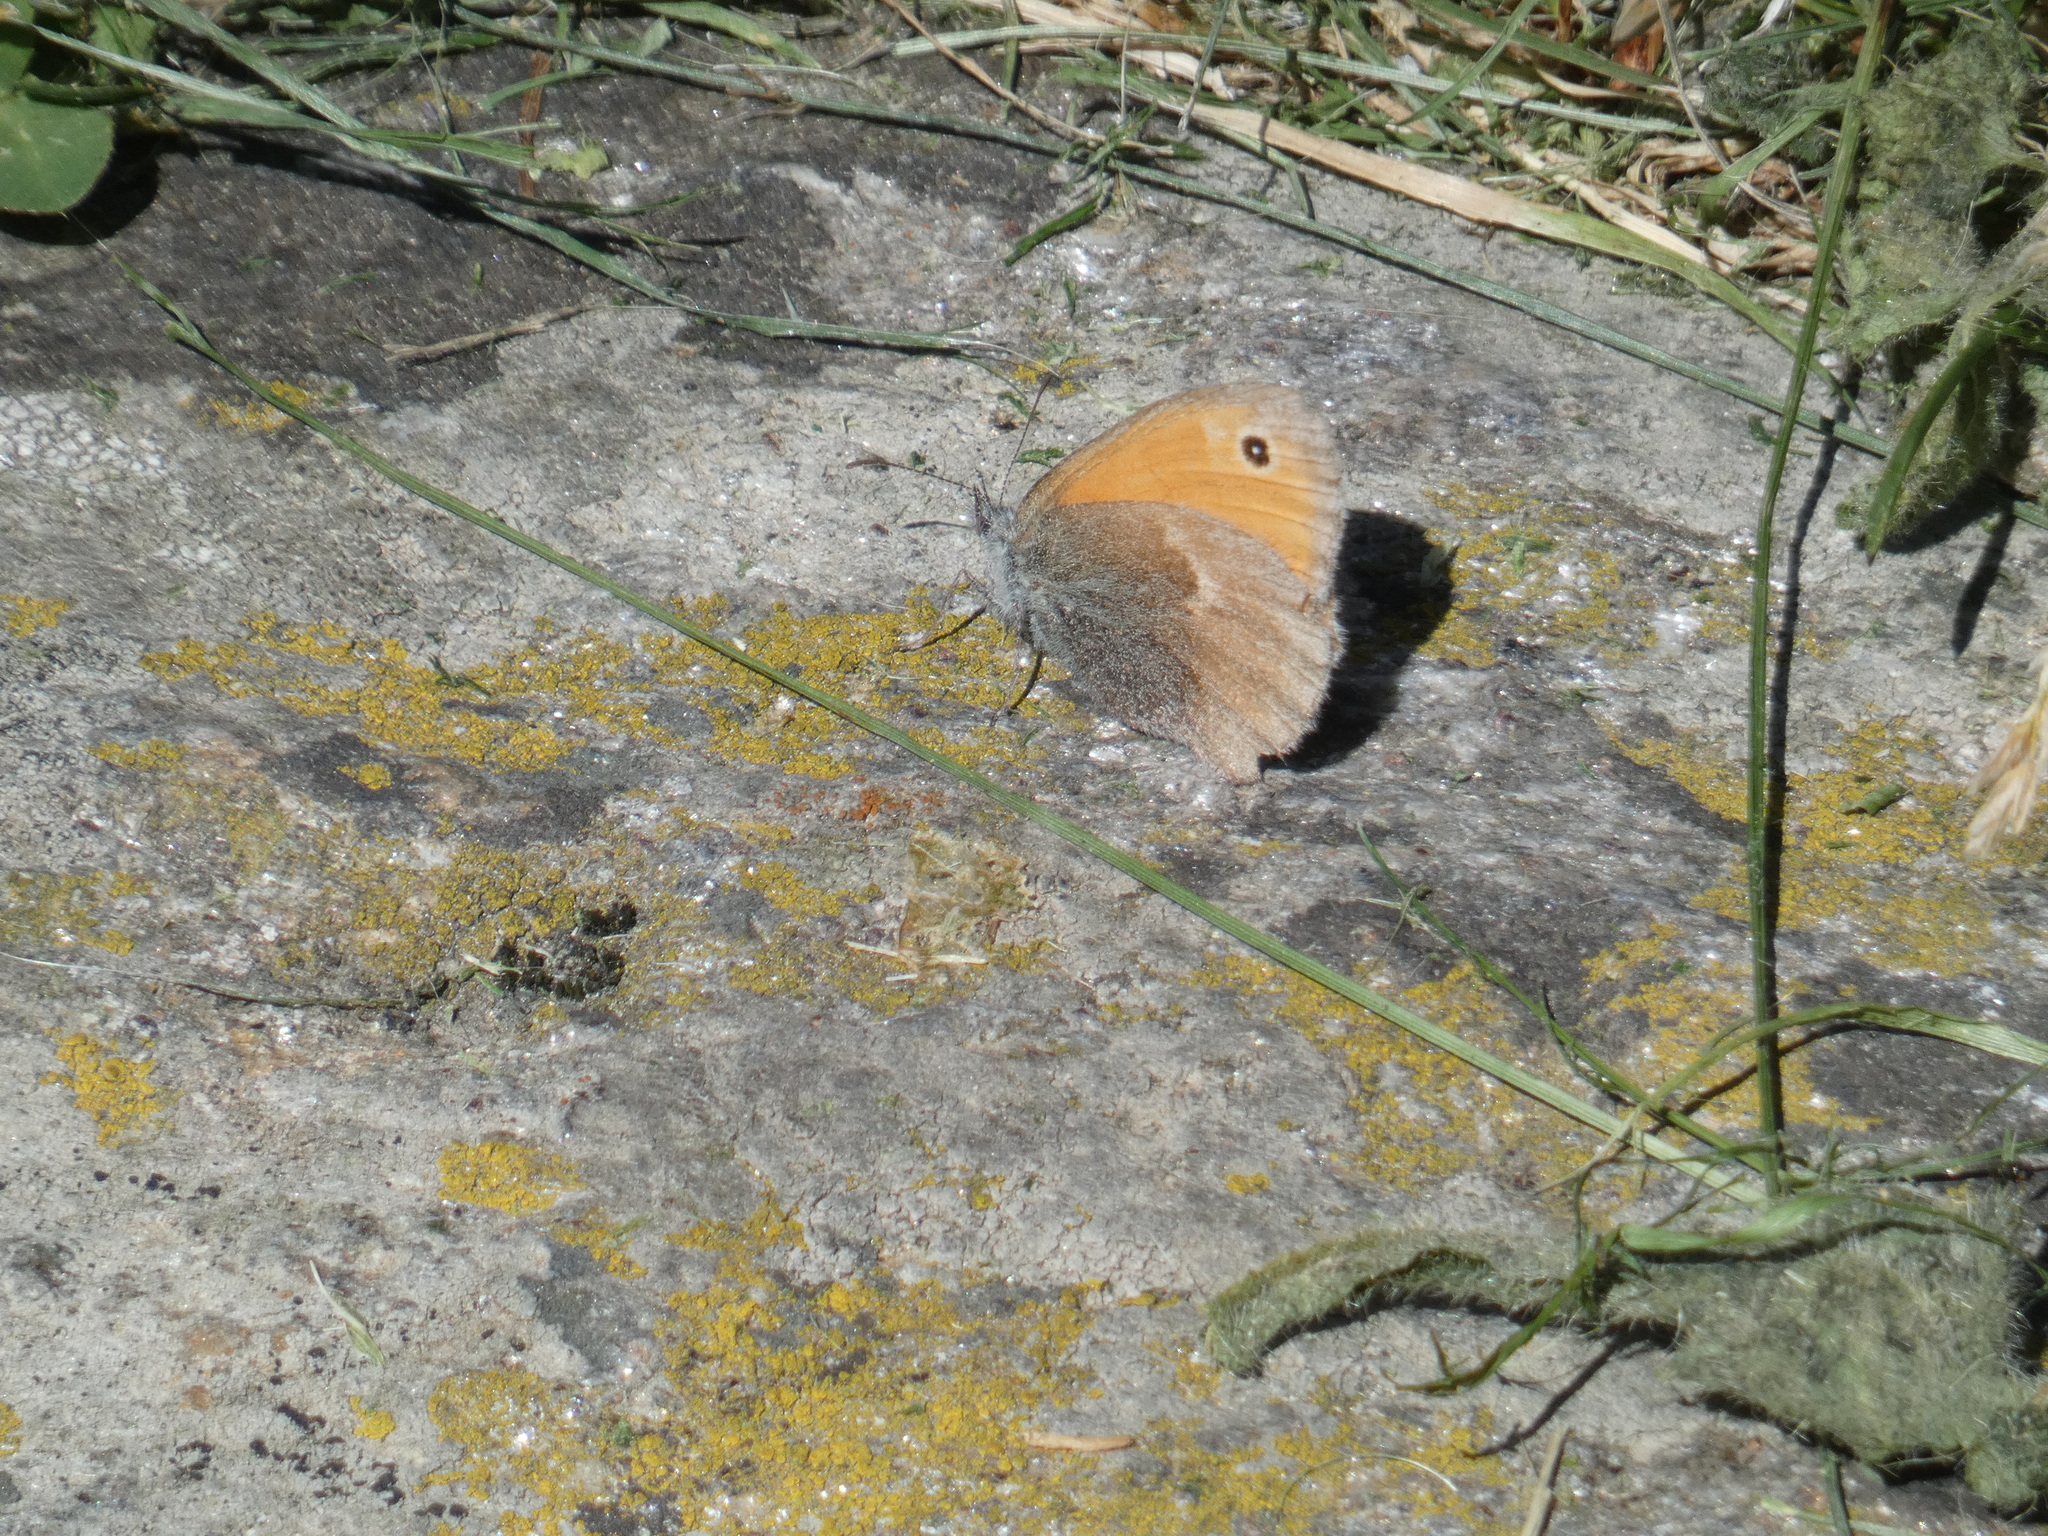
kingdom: Animalia
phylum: Arthropoda
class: Insecta
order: Lepidoptera
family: Nymphalidae
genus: Coenonympha
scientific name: Coenonympha pamphilus
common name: Small heath
